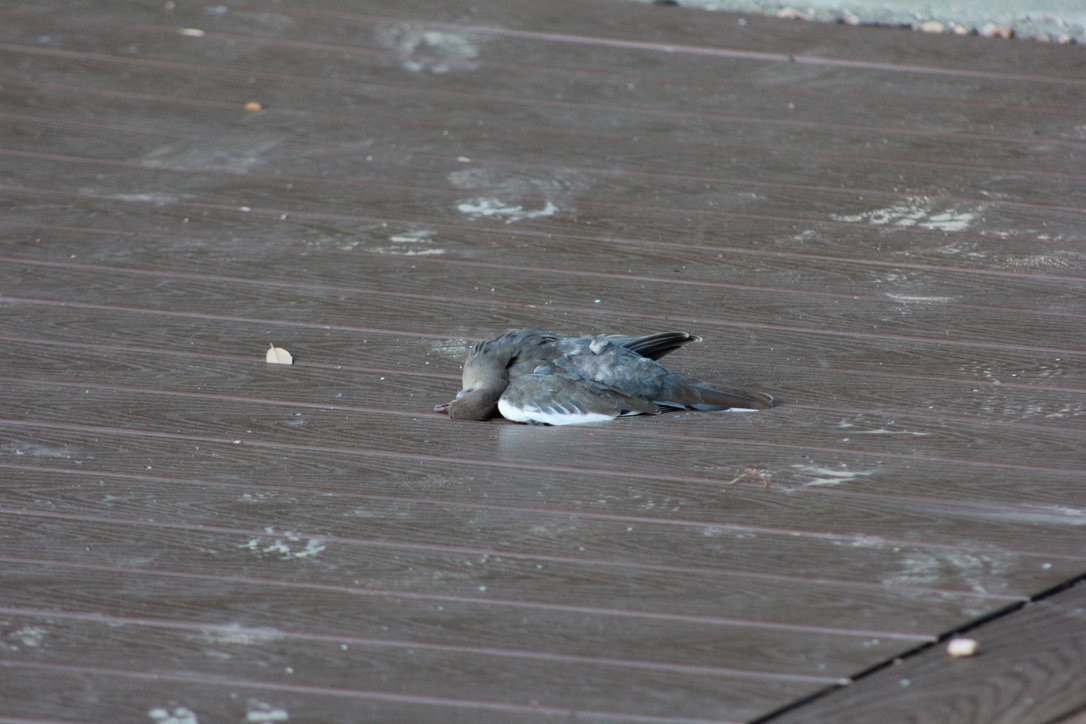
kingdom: Animalia
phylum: Chordata
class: Aves
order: Columbiformes
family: Columbidae
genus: Zenaida
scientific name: Zenaida asiatica
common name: White-winged dove
